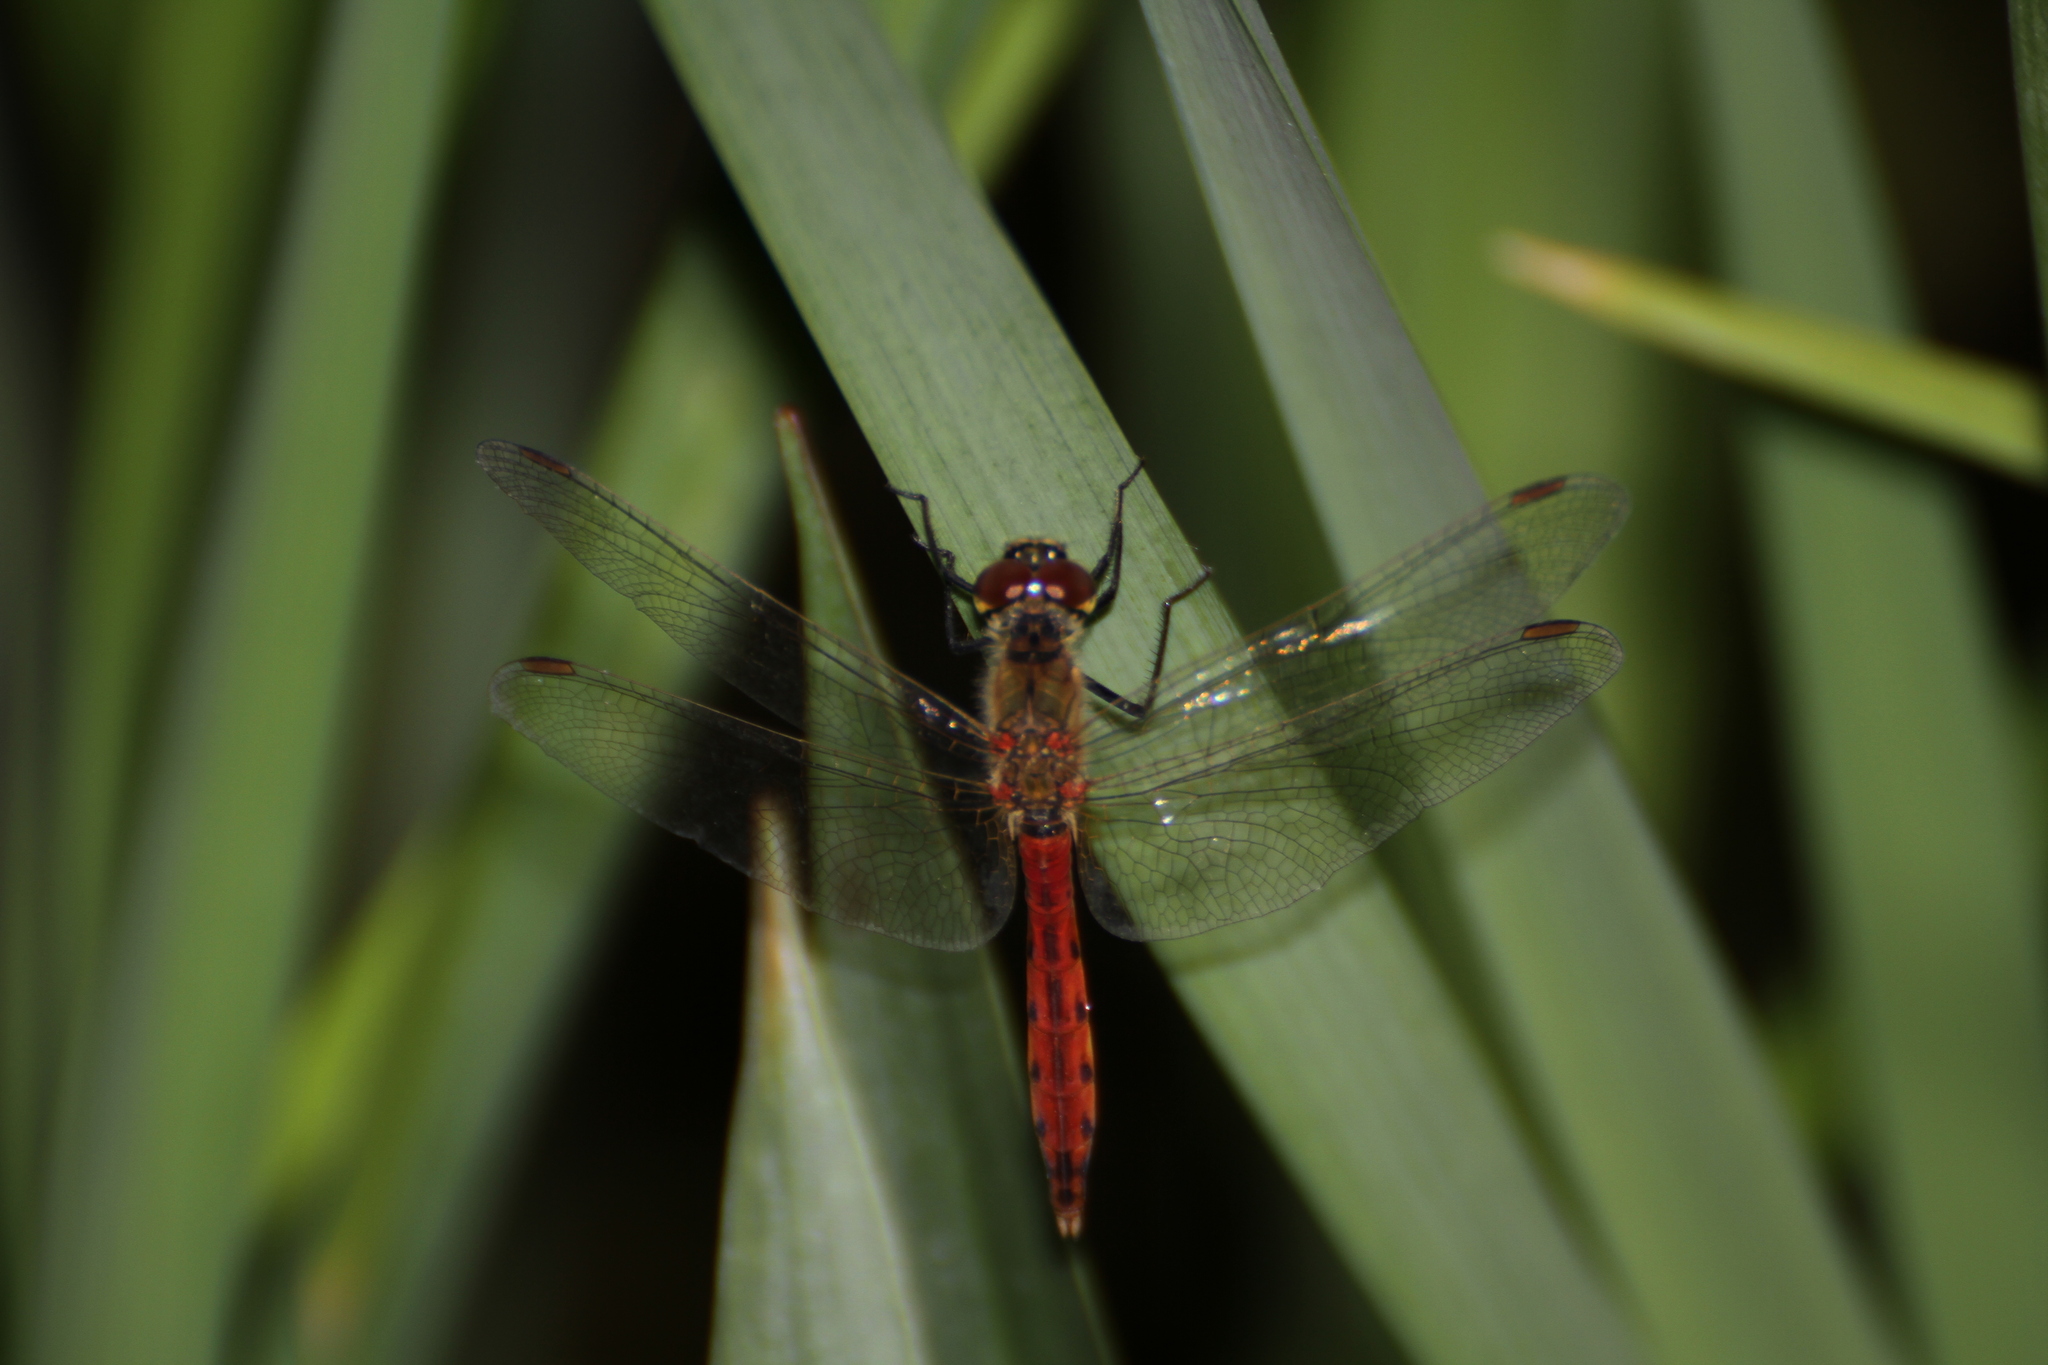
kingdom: Animalia
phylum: Arthropoda
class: Insecta
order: Odonata
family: Libellulidae
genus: Sympetrum
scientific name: Sympetrum depressiusculum
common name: Spotted darter
